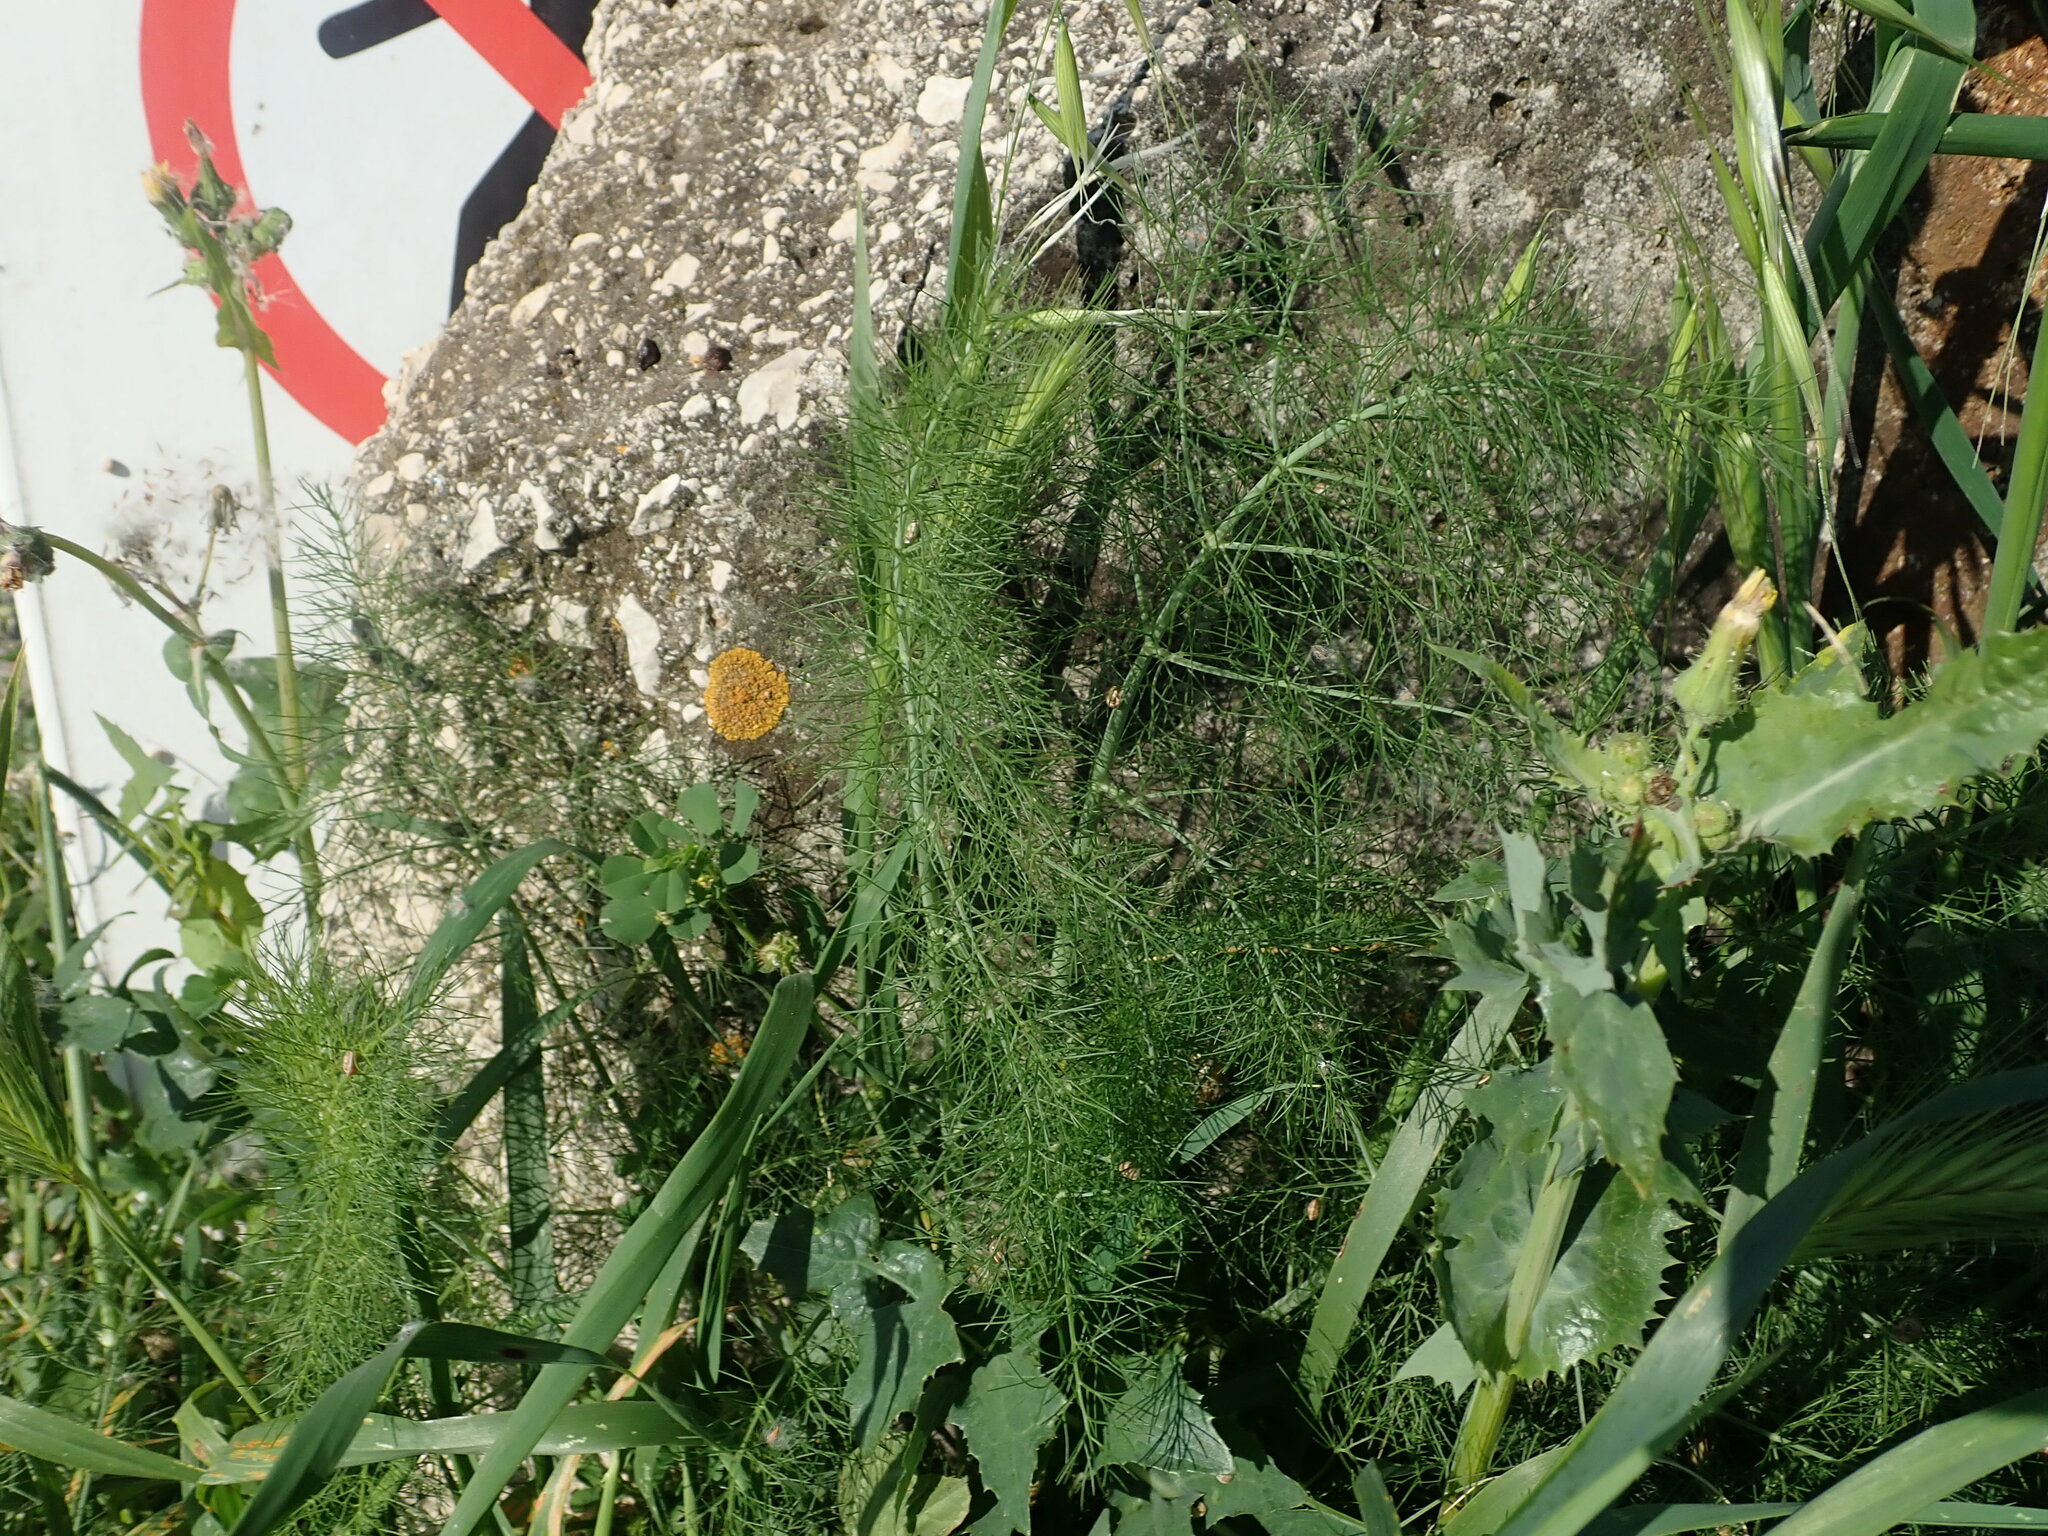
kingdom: Plantae
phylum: Tracheophyta
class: Magnoliopsida
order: Apiales
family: Apiaceae
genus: Foeniculum
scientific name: Foeniculum vulgare
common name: Fennel
